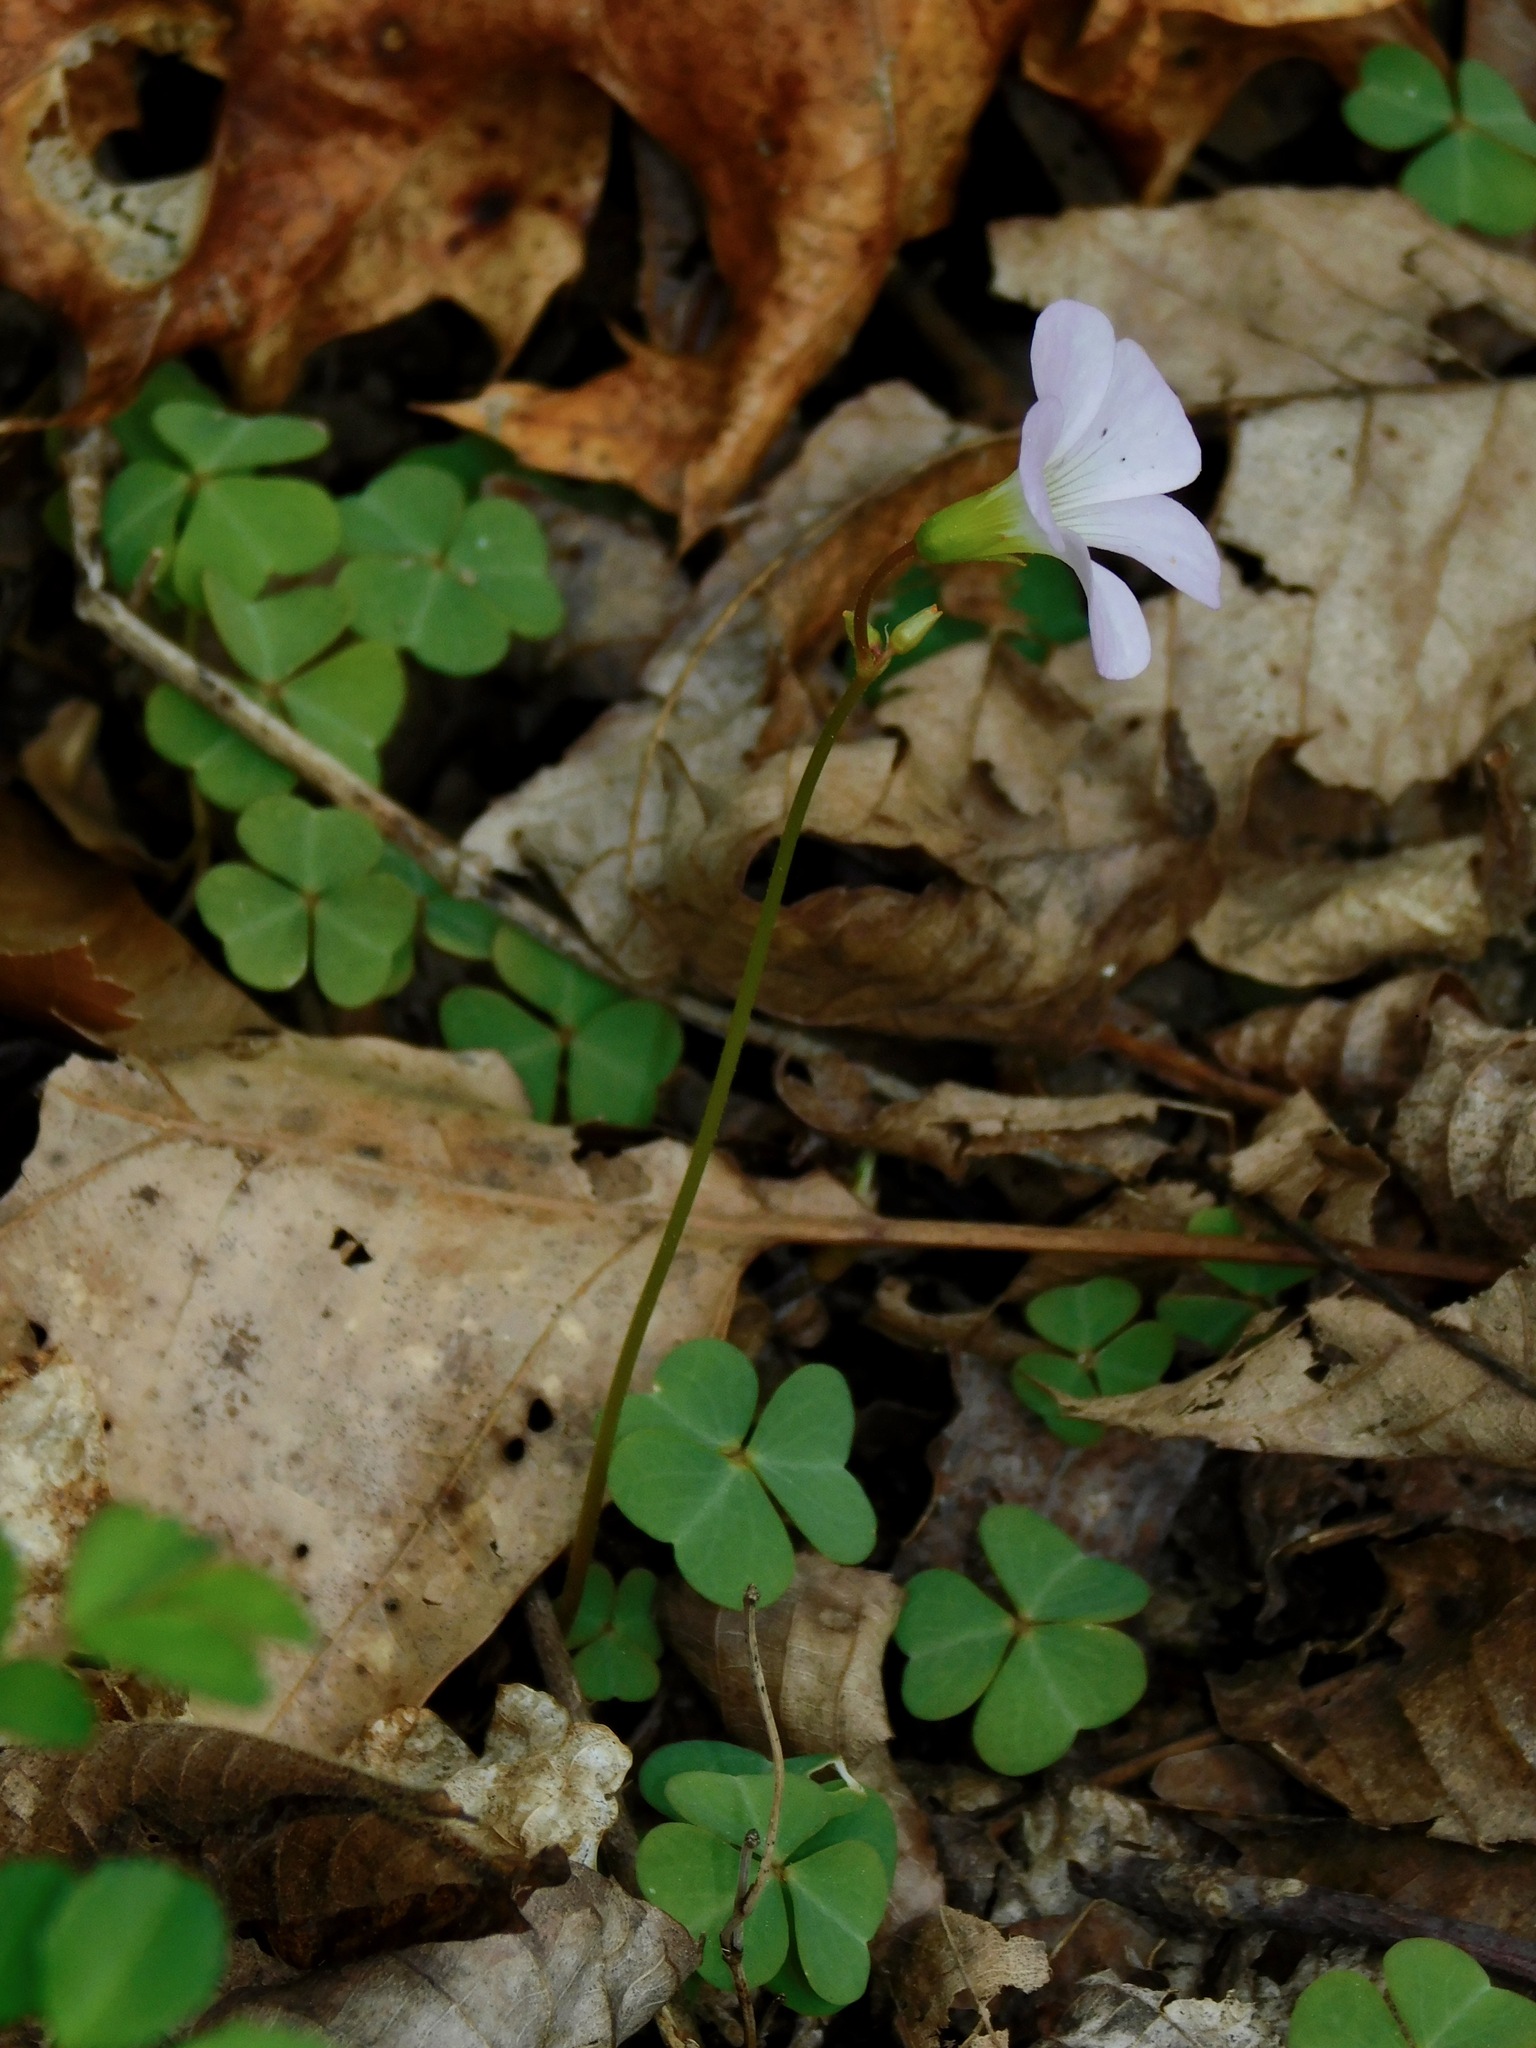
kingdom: Plantae
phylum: Tracheophyta
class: Magnoliopsida
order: Oxalidales
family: Oxalidaceae
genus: Oxalis
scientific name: Oxalis violacea
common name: Violet wood-sorrel
